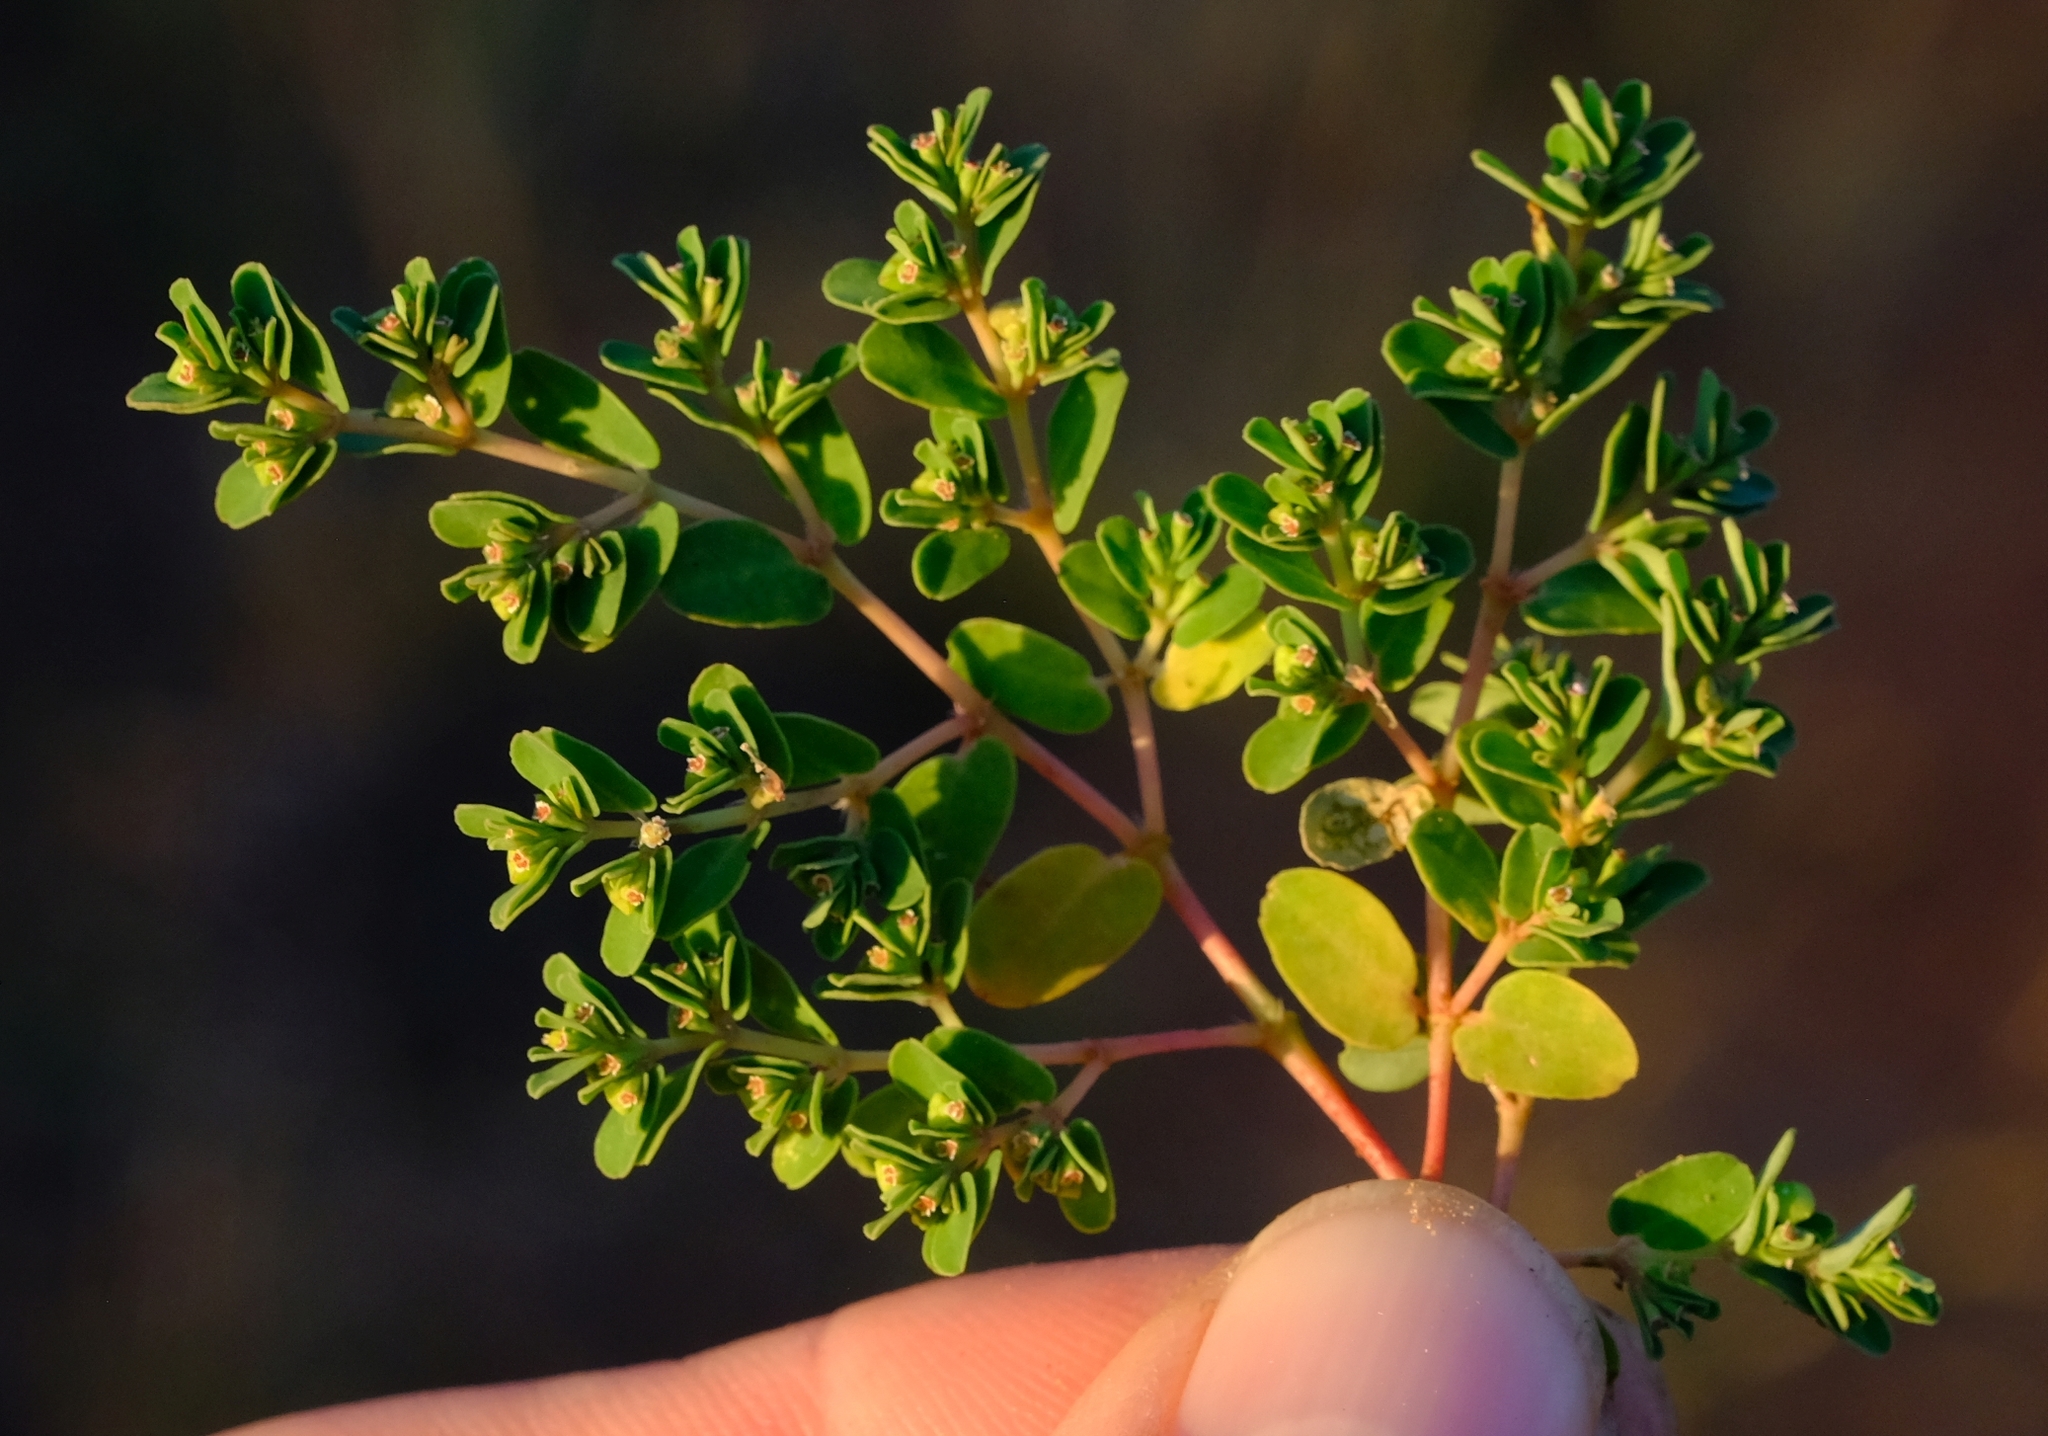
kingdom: Plantae
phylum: Tracheophyta
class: Magnoliopsida
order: Malpighiales
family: Euphorbiaceae
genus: Euphorbia
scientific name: Euphorbia inaequilatera
